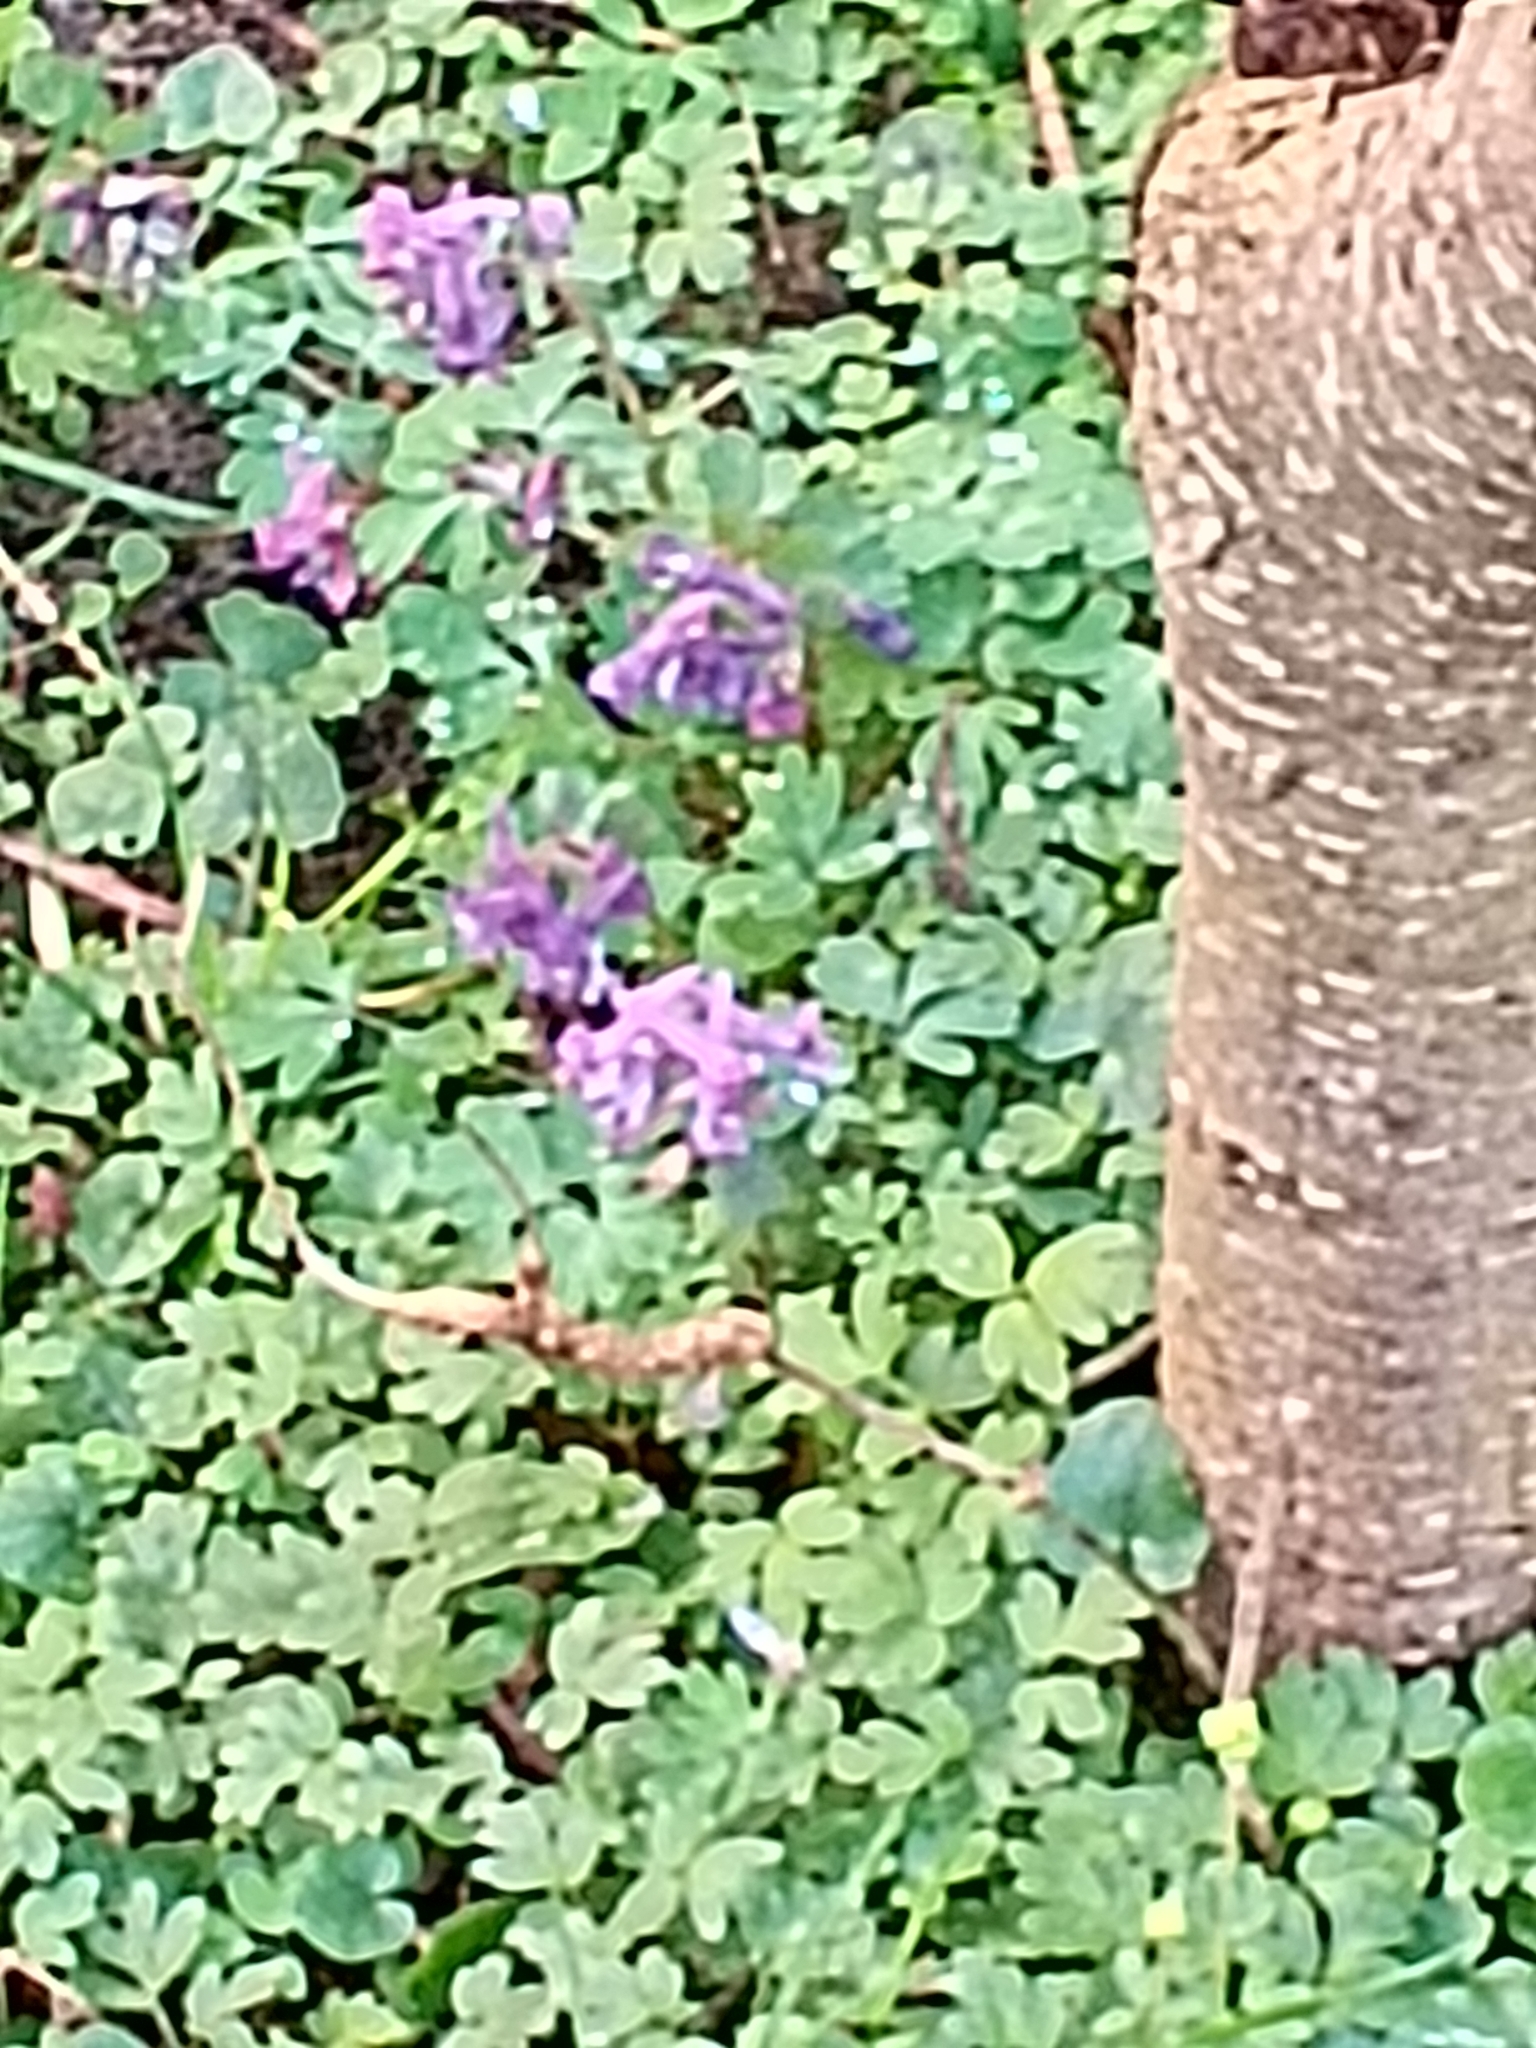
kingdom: Plantae
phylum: Tracheophyta
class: Magnoliopsida
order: Ranunculales
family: Papaveraceae
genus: Corydalis
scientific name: Corydalis solida
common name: Bird-in-a-bush
